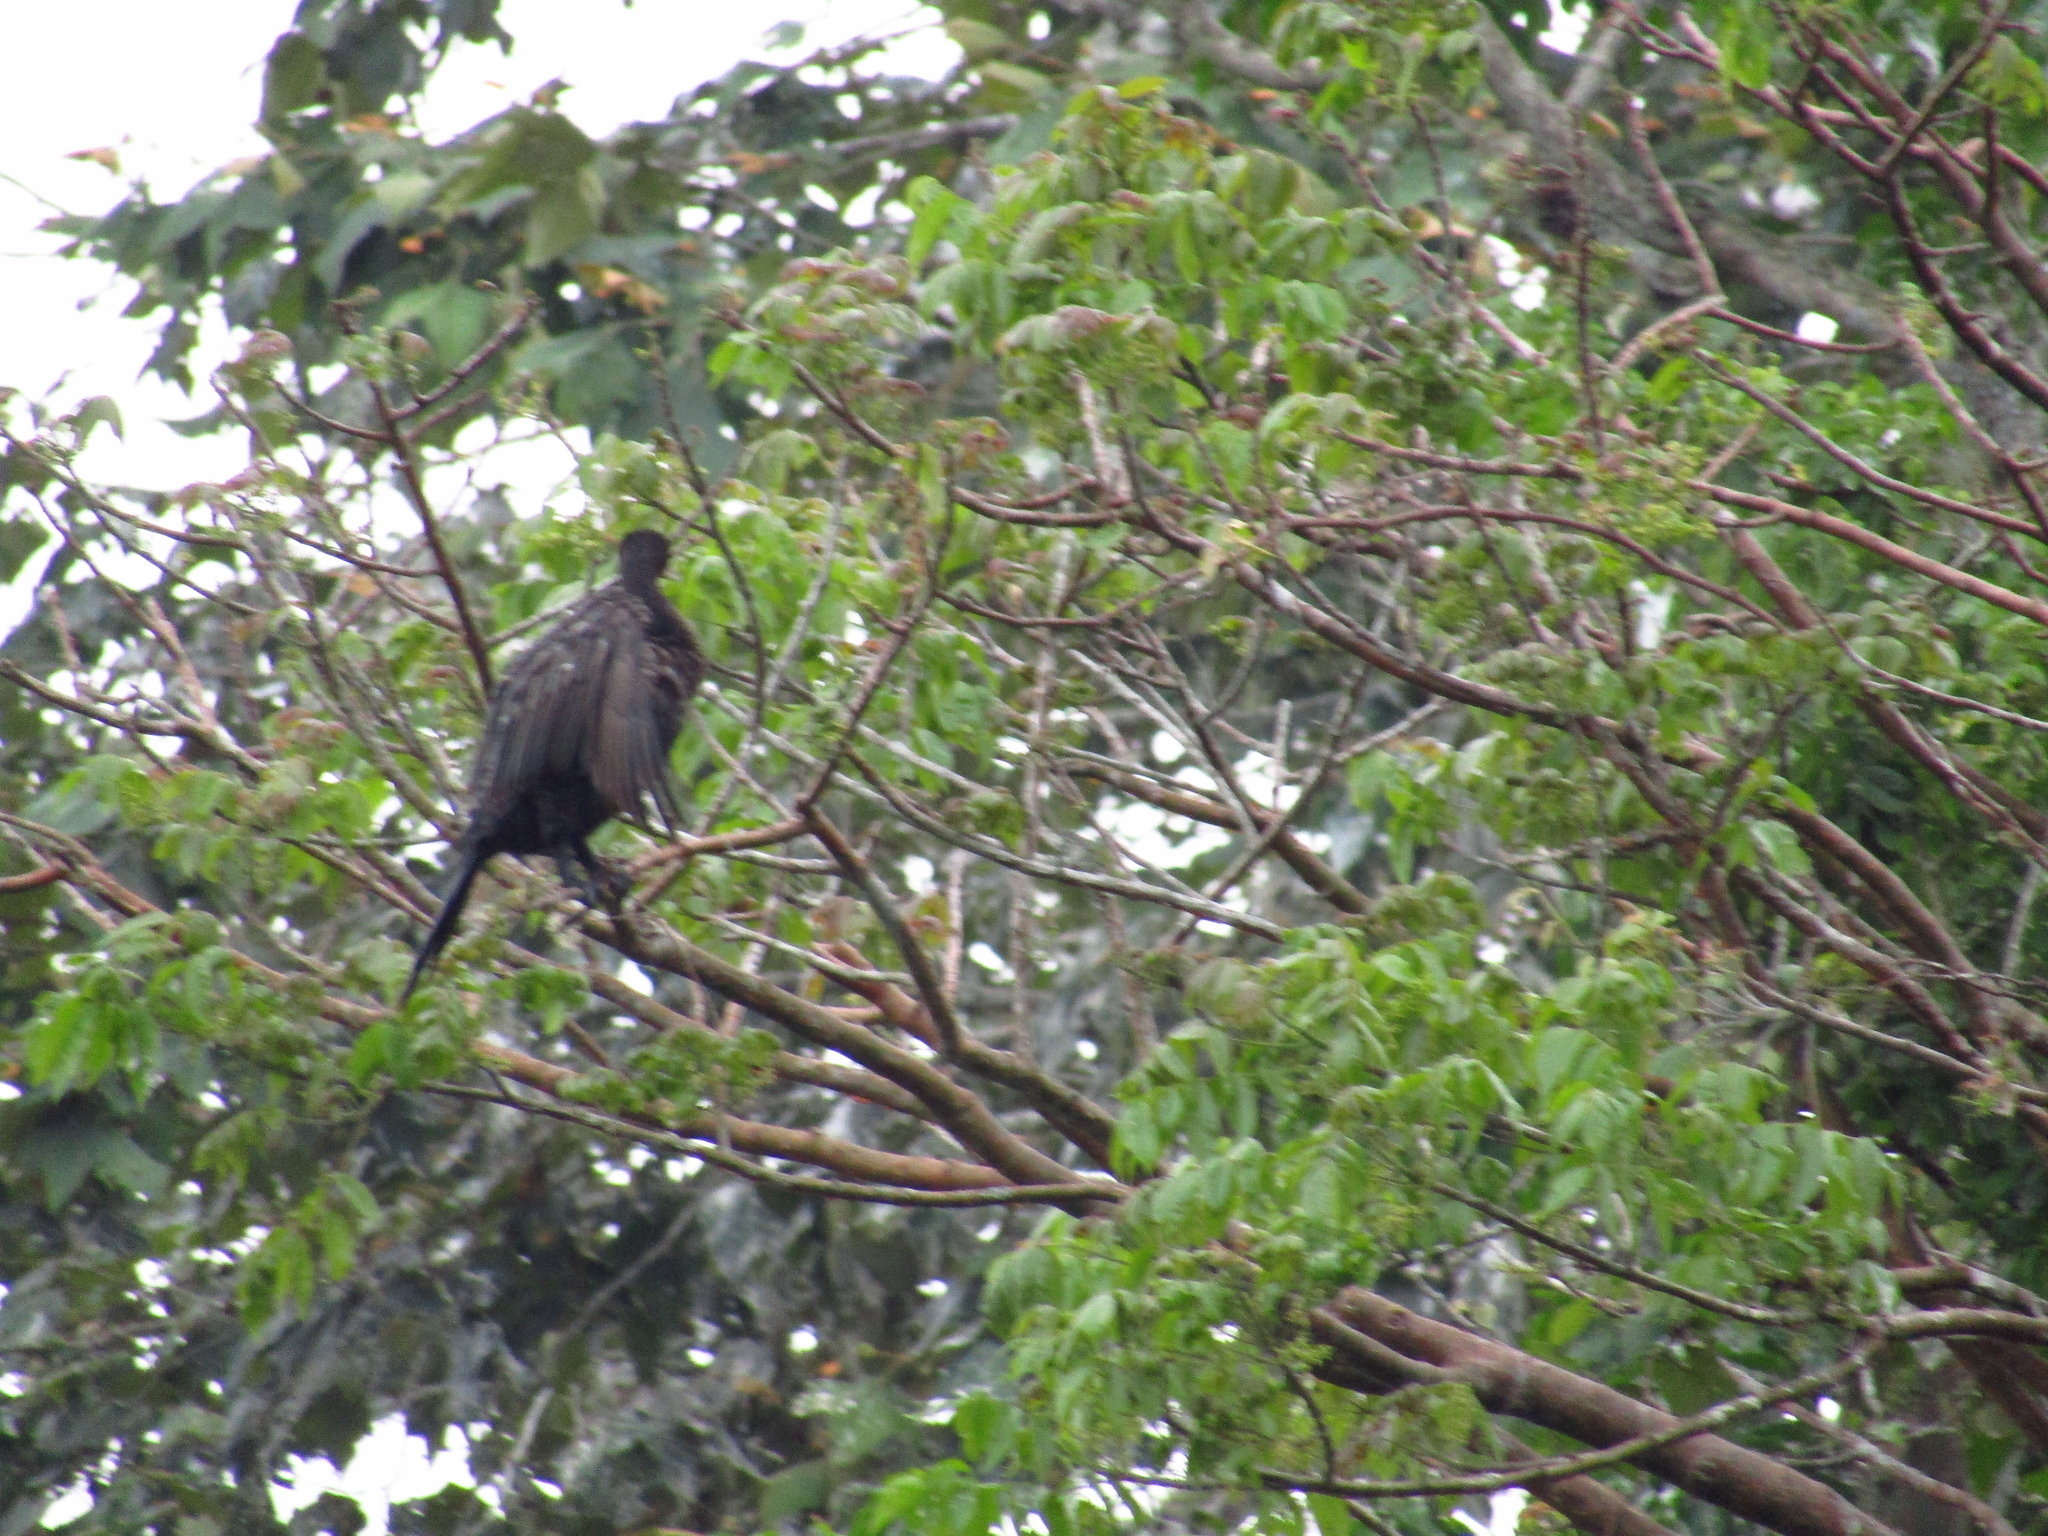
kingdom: Animalia
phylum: Chordata
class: Aves
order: Suliformes
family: Phalacrocoracidae
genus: Phalacrocorax
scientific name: Phalacrocorax brasilianus
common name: Neotropic cormorant
